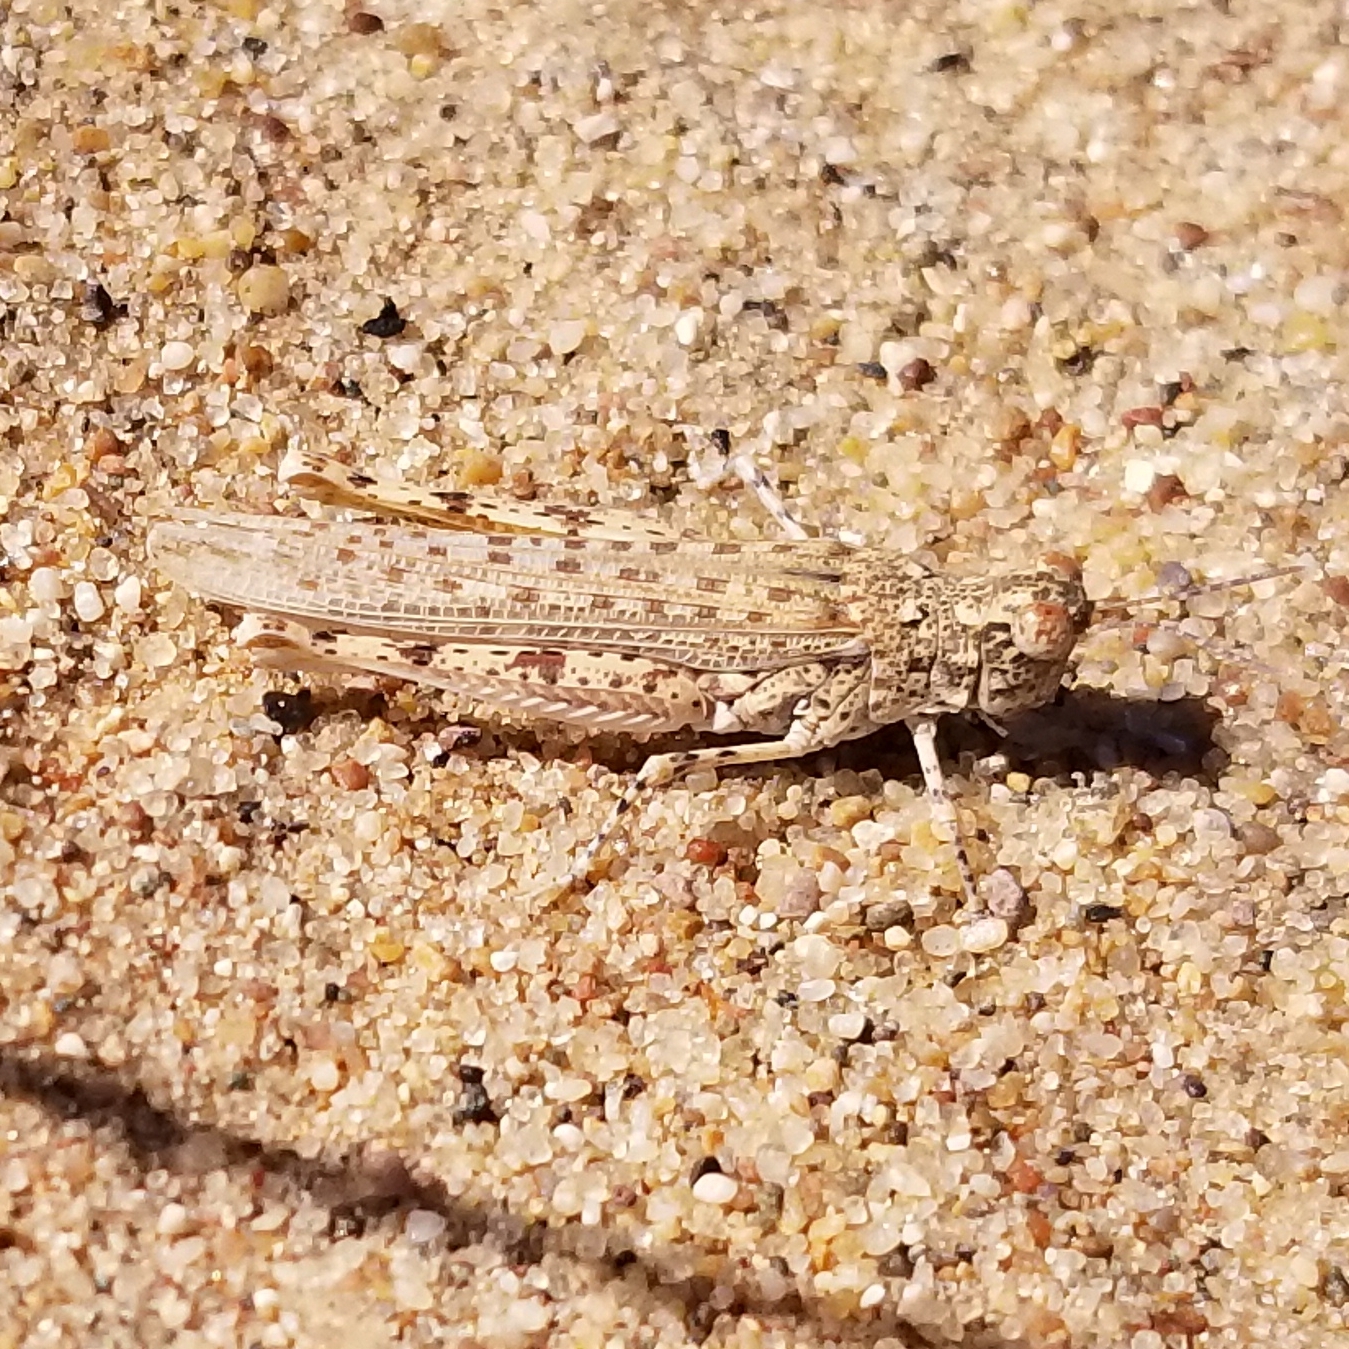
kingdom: Animalia
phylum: Arthropoda
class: Insecta
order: Orthoptera
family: Acrididae
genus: Xeracris
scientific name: Xeracris snowi
